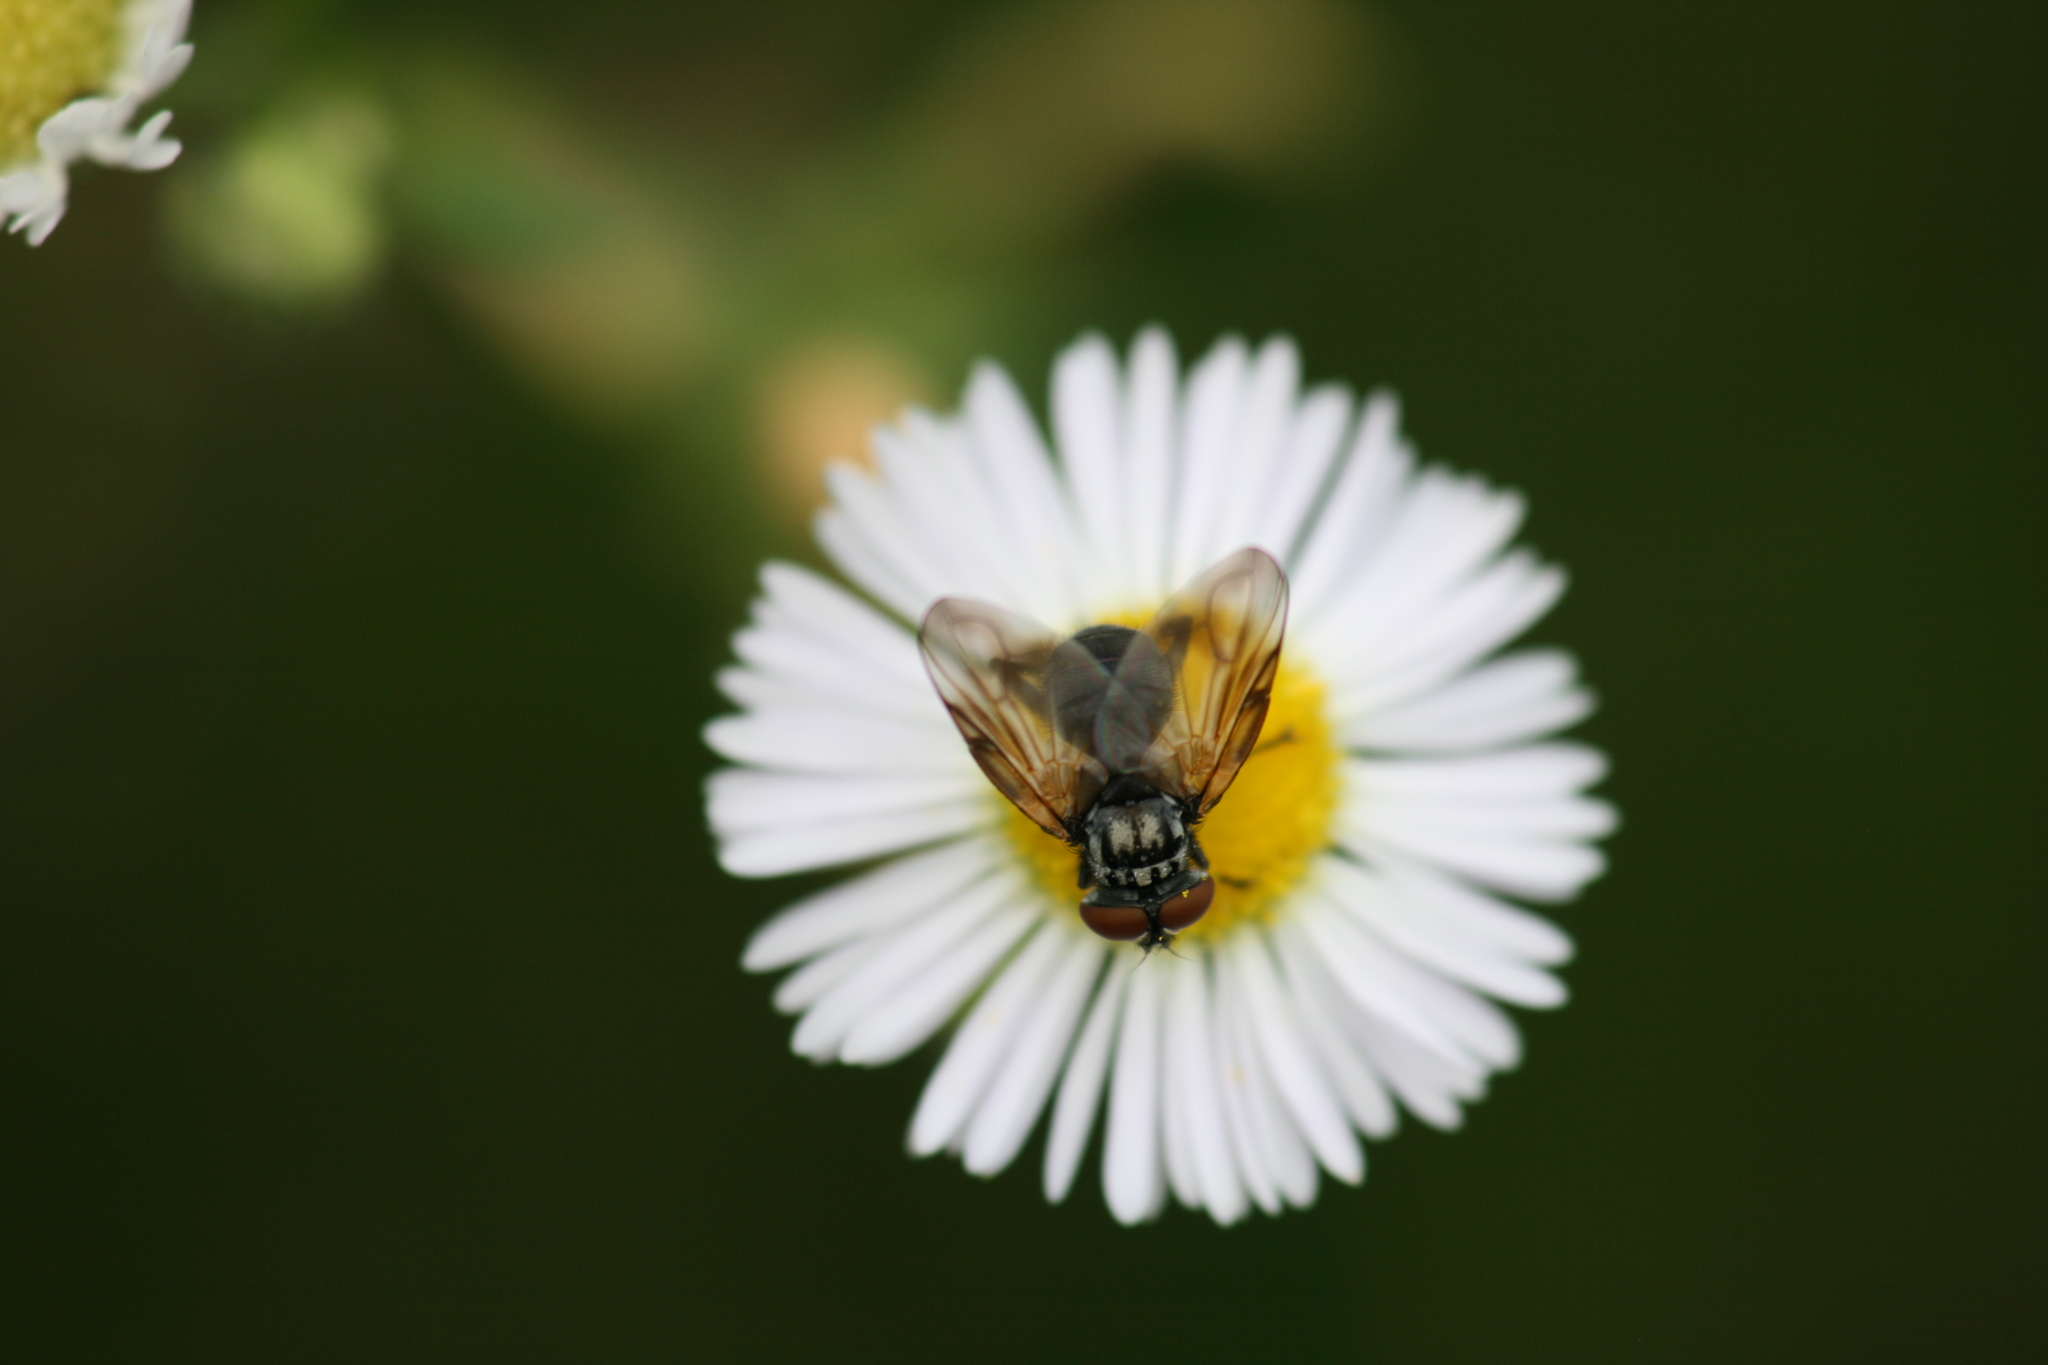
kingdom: Animalia
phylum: Arthropoda
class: Insecta
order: Diptera
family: Tachinidae
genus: Phasia
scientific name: Phasia obesa
